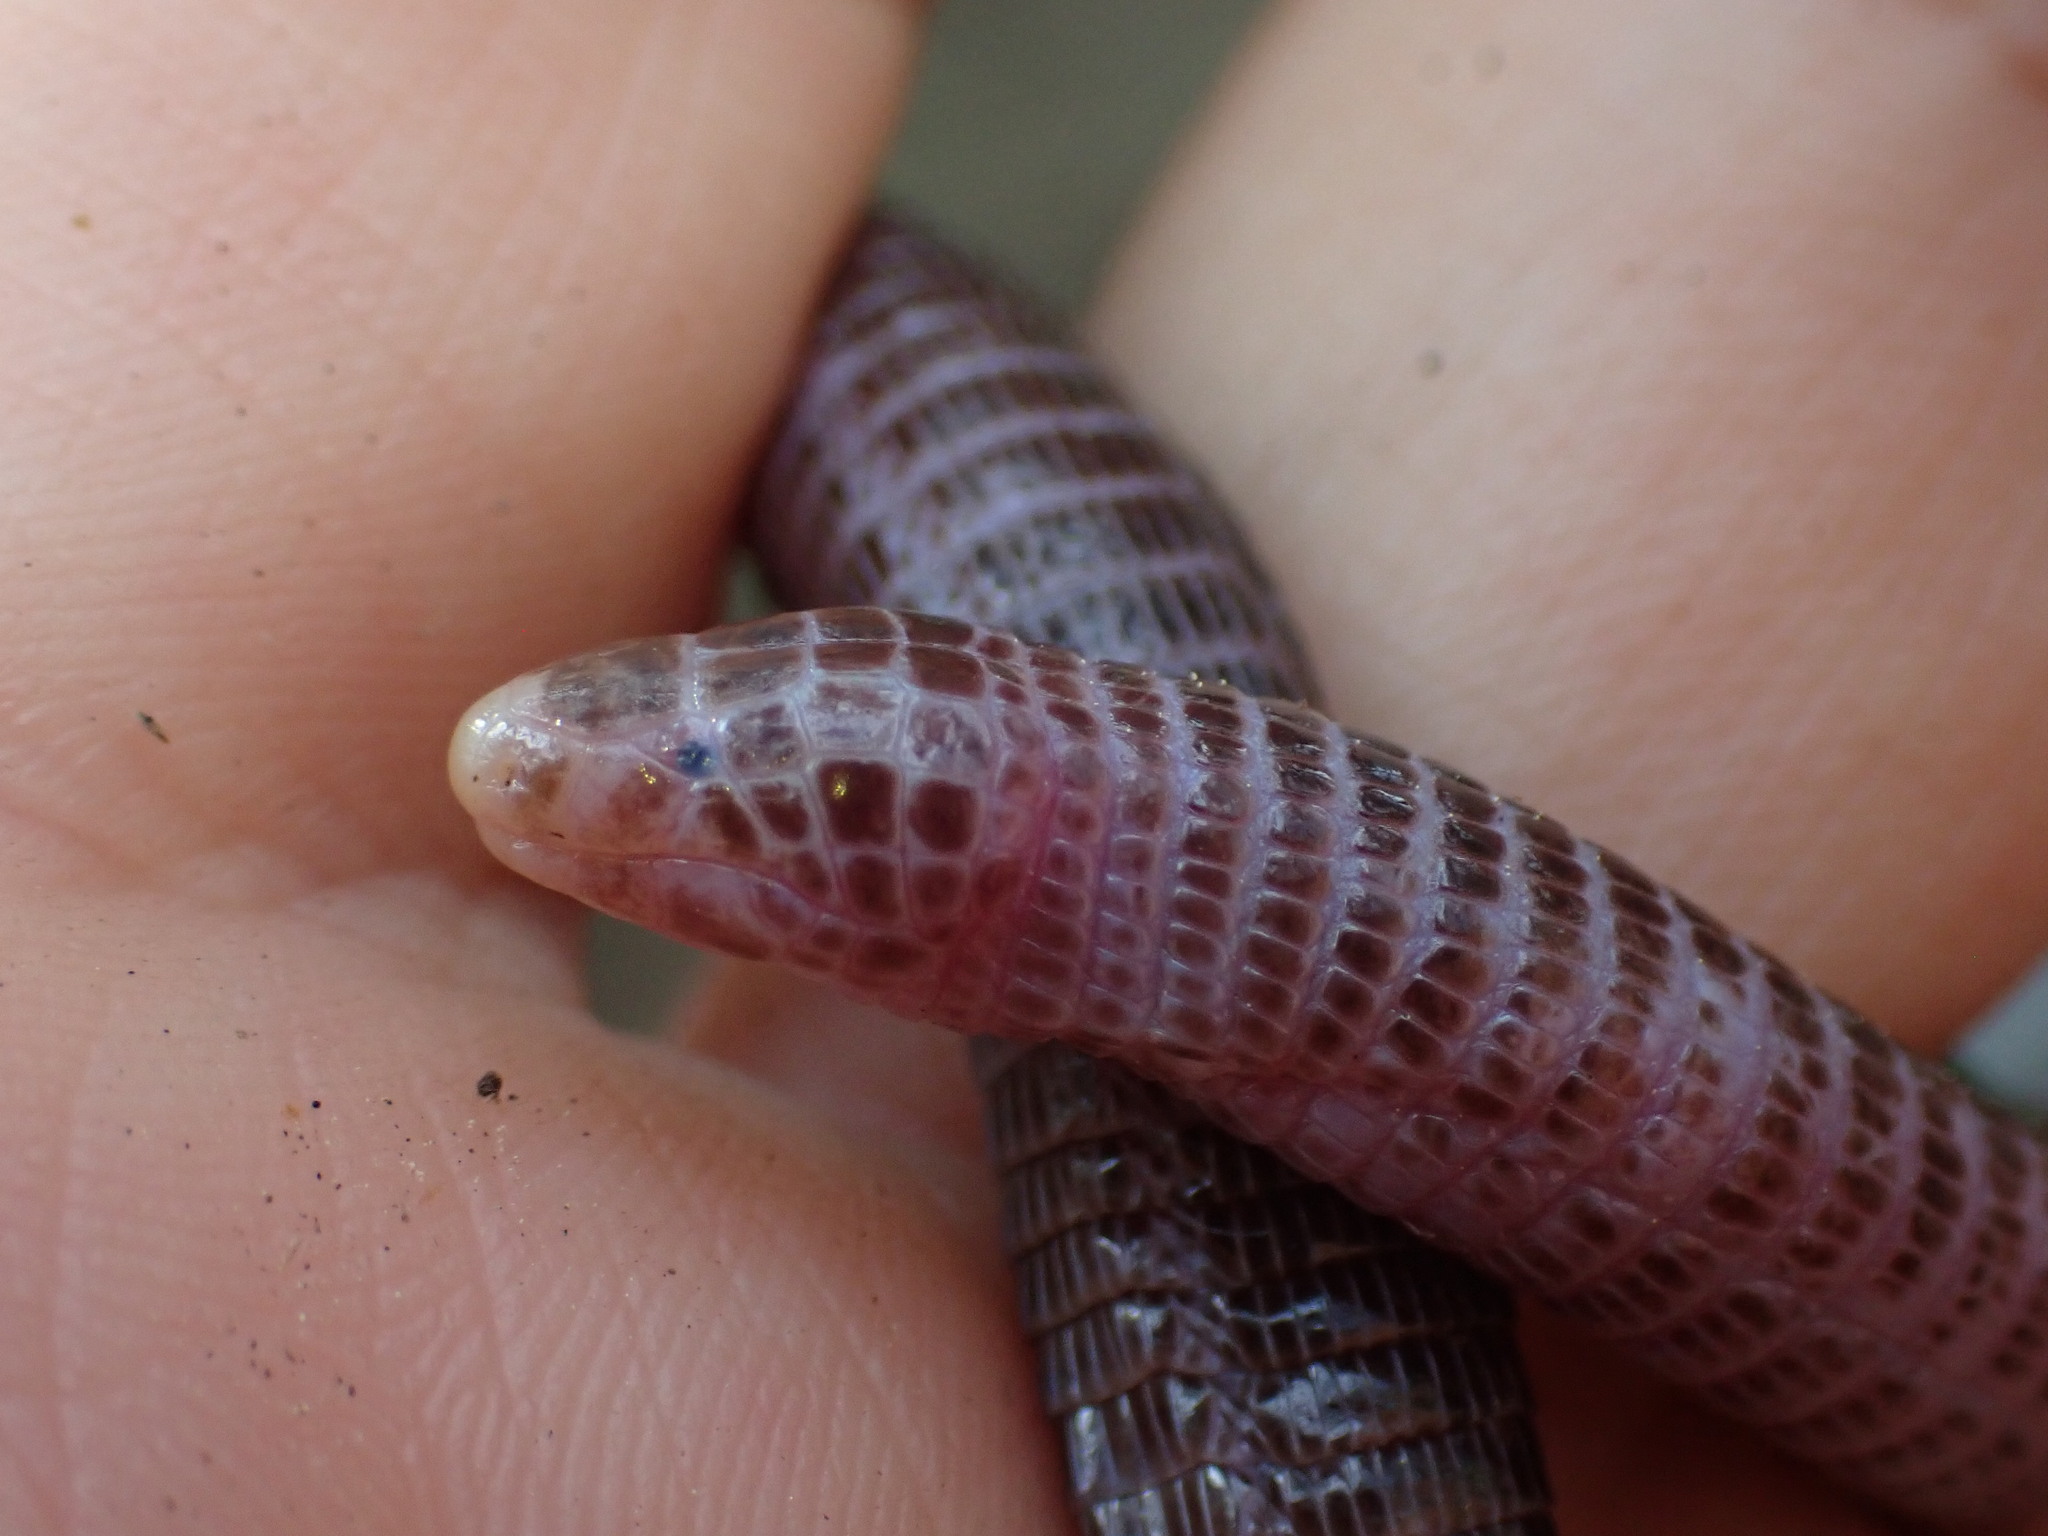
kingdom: Animalia
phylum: Chordata
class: Squamata
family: Blanidae
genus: Blanus
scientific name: Blanus aporus
